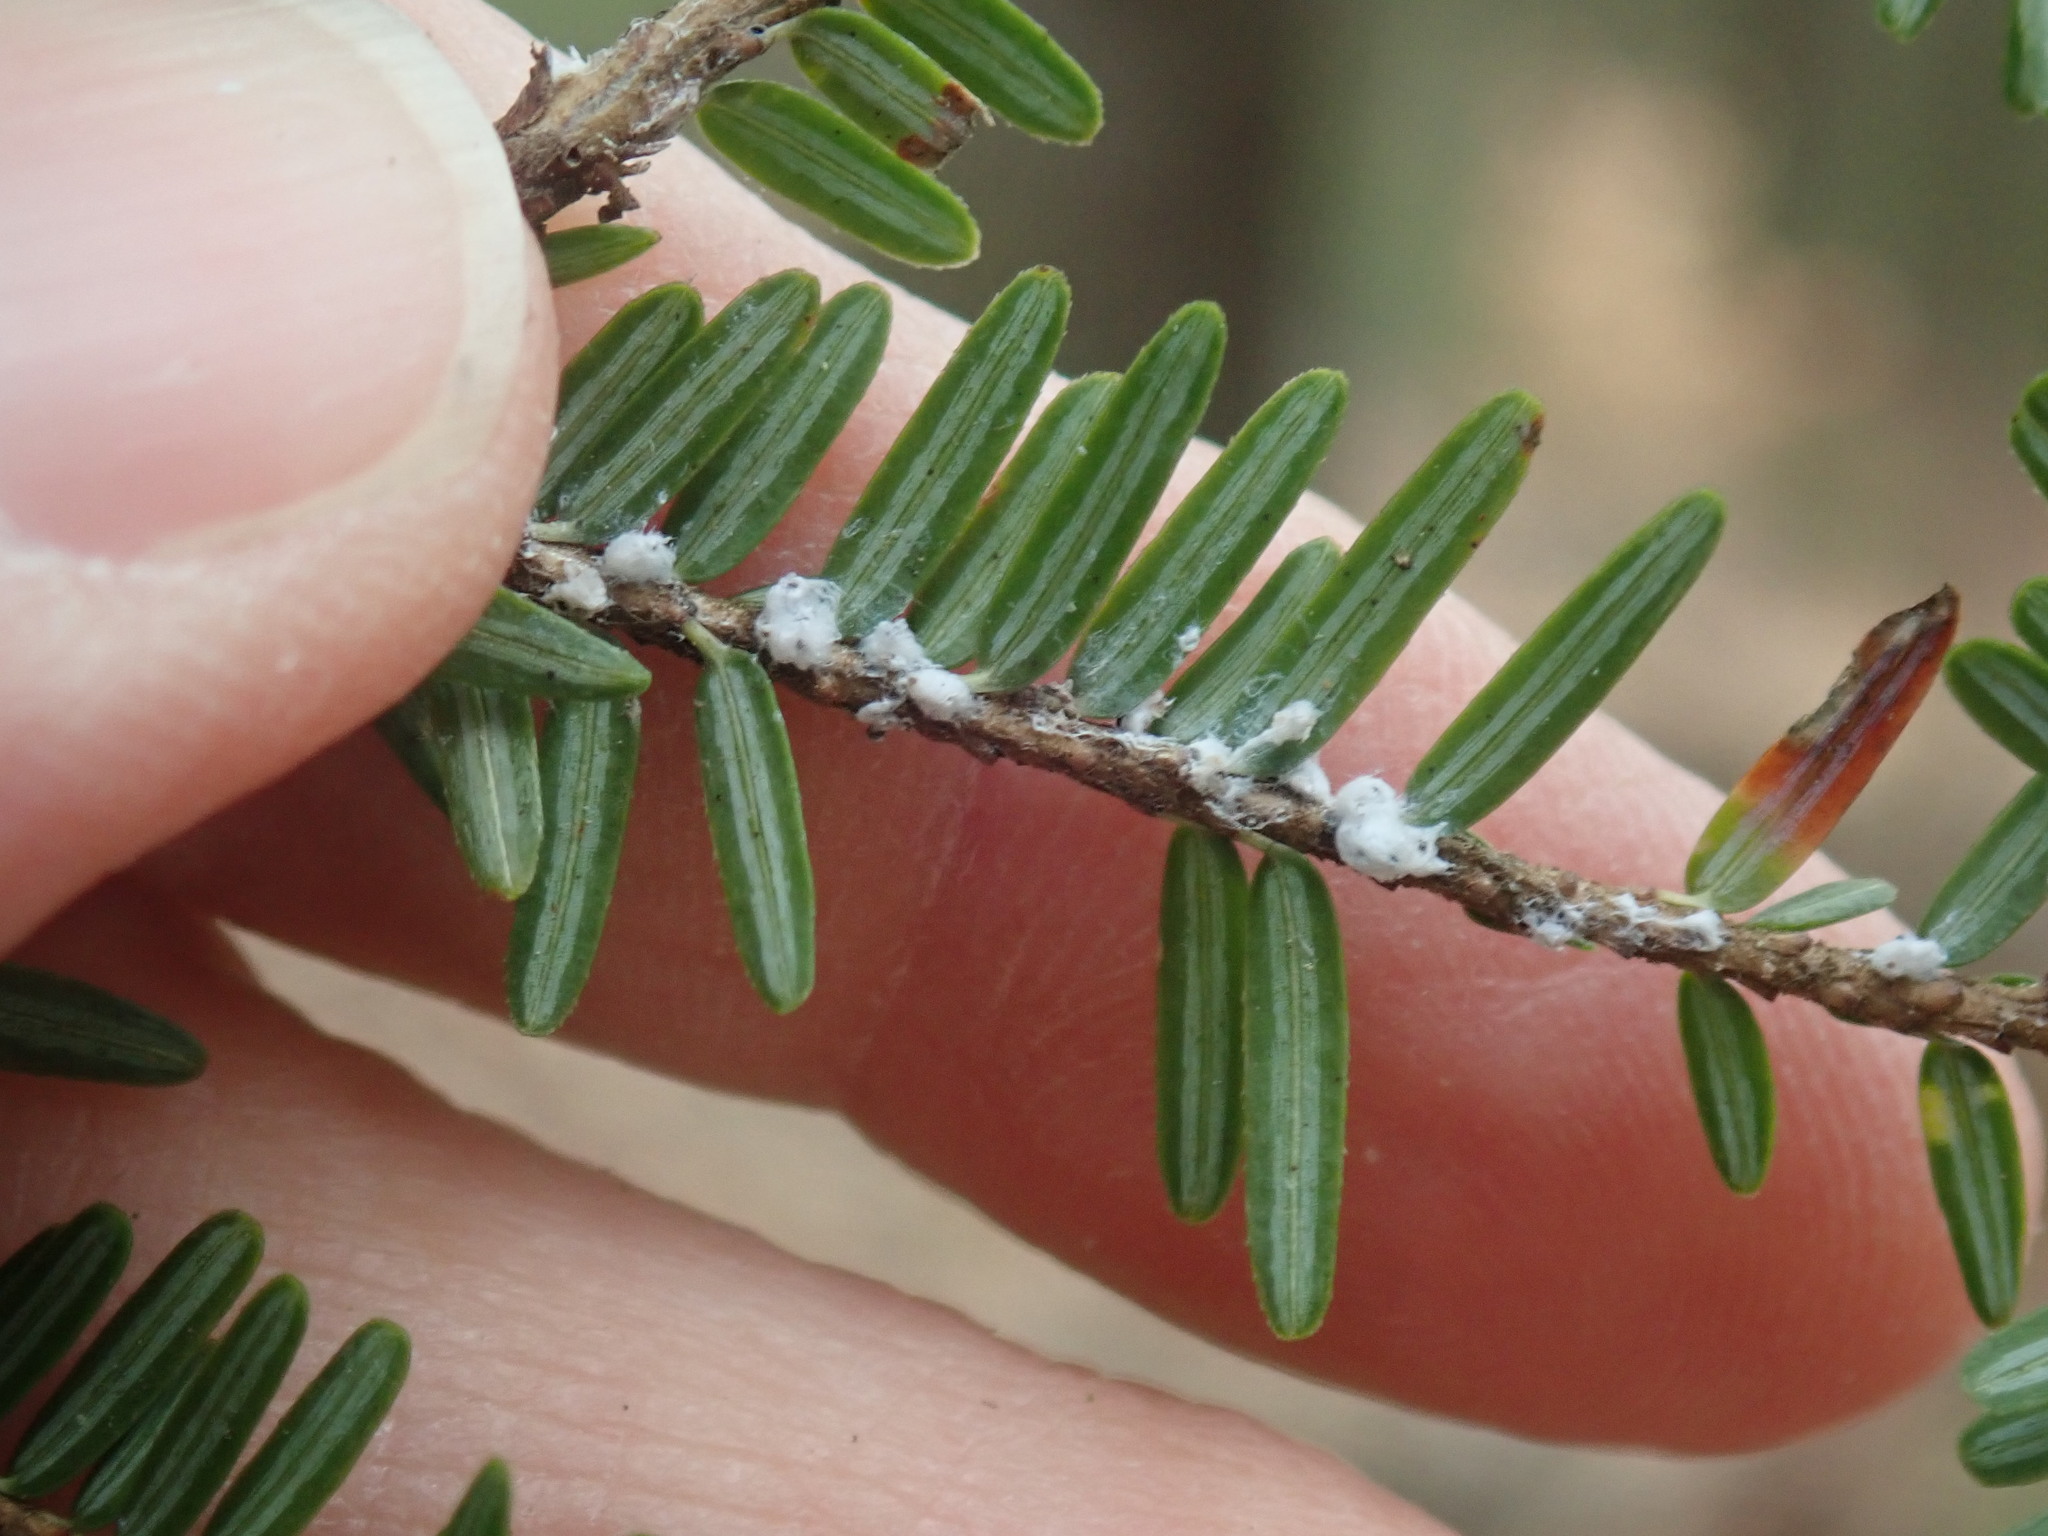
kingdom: Animalia
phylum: Arthropoda
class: Insecta
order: Hemiptera
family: Adelgidae
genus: Adelges
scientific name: Adelges tsugae
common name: Hemlock woolly adelgid
